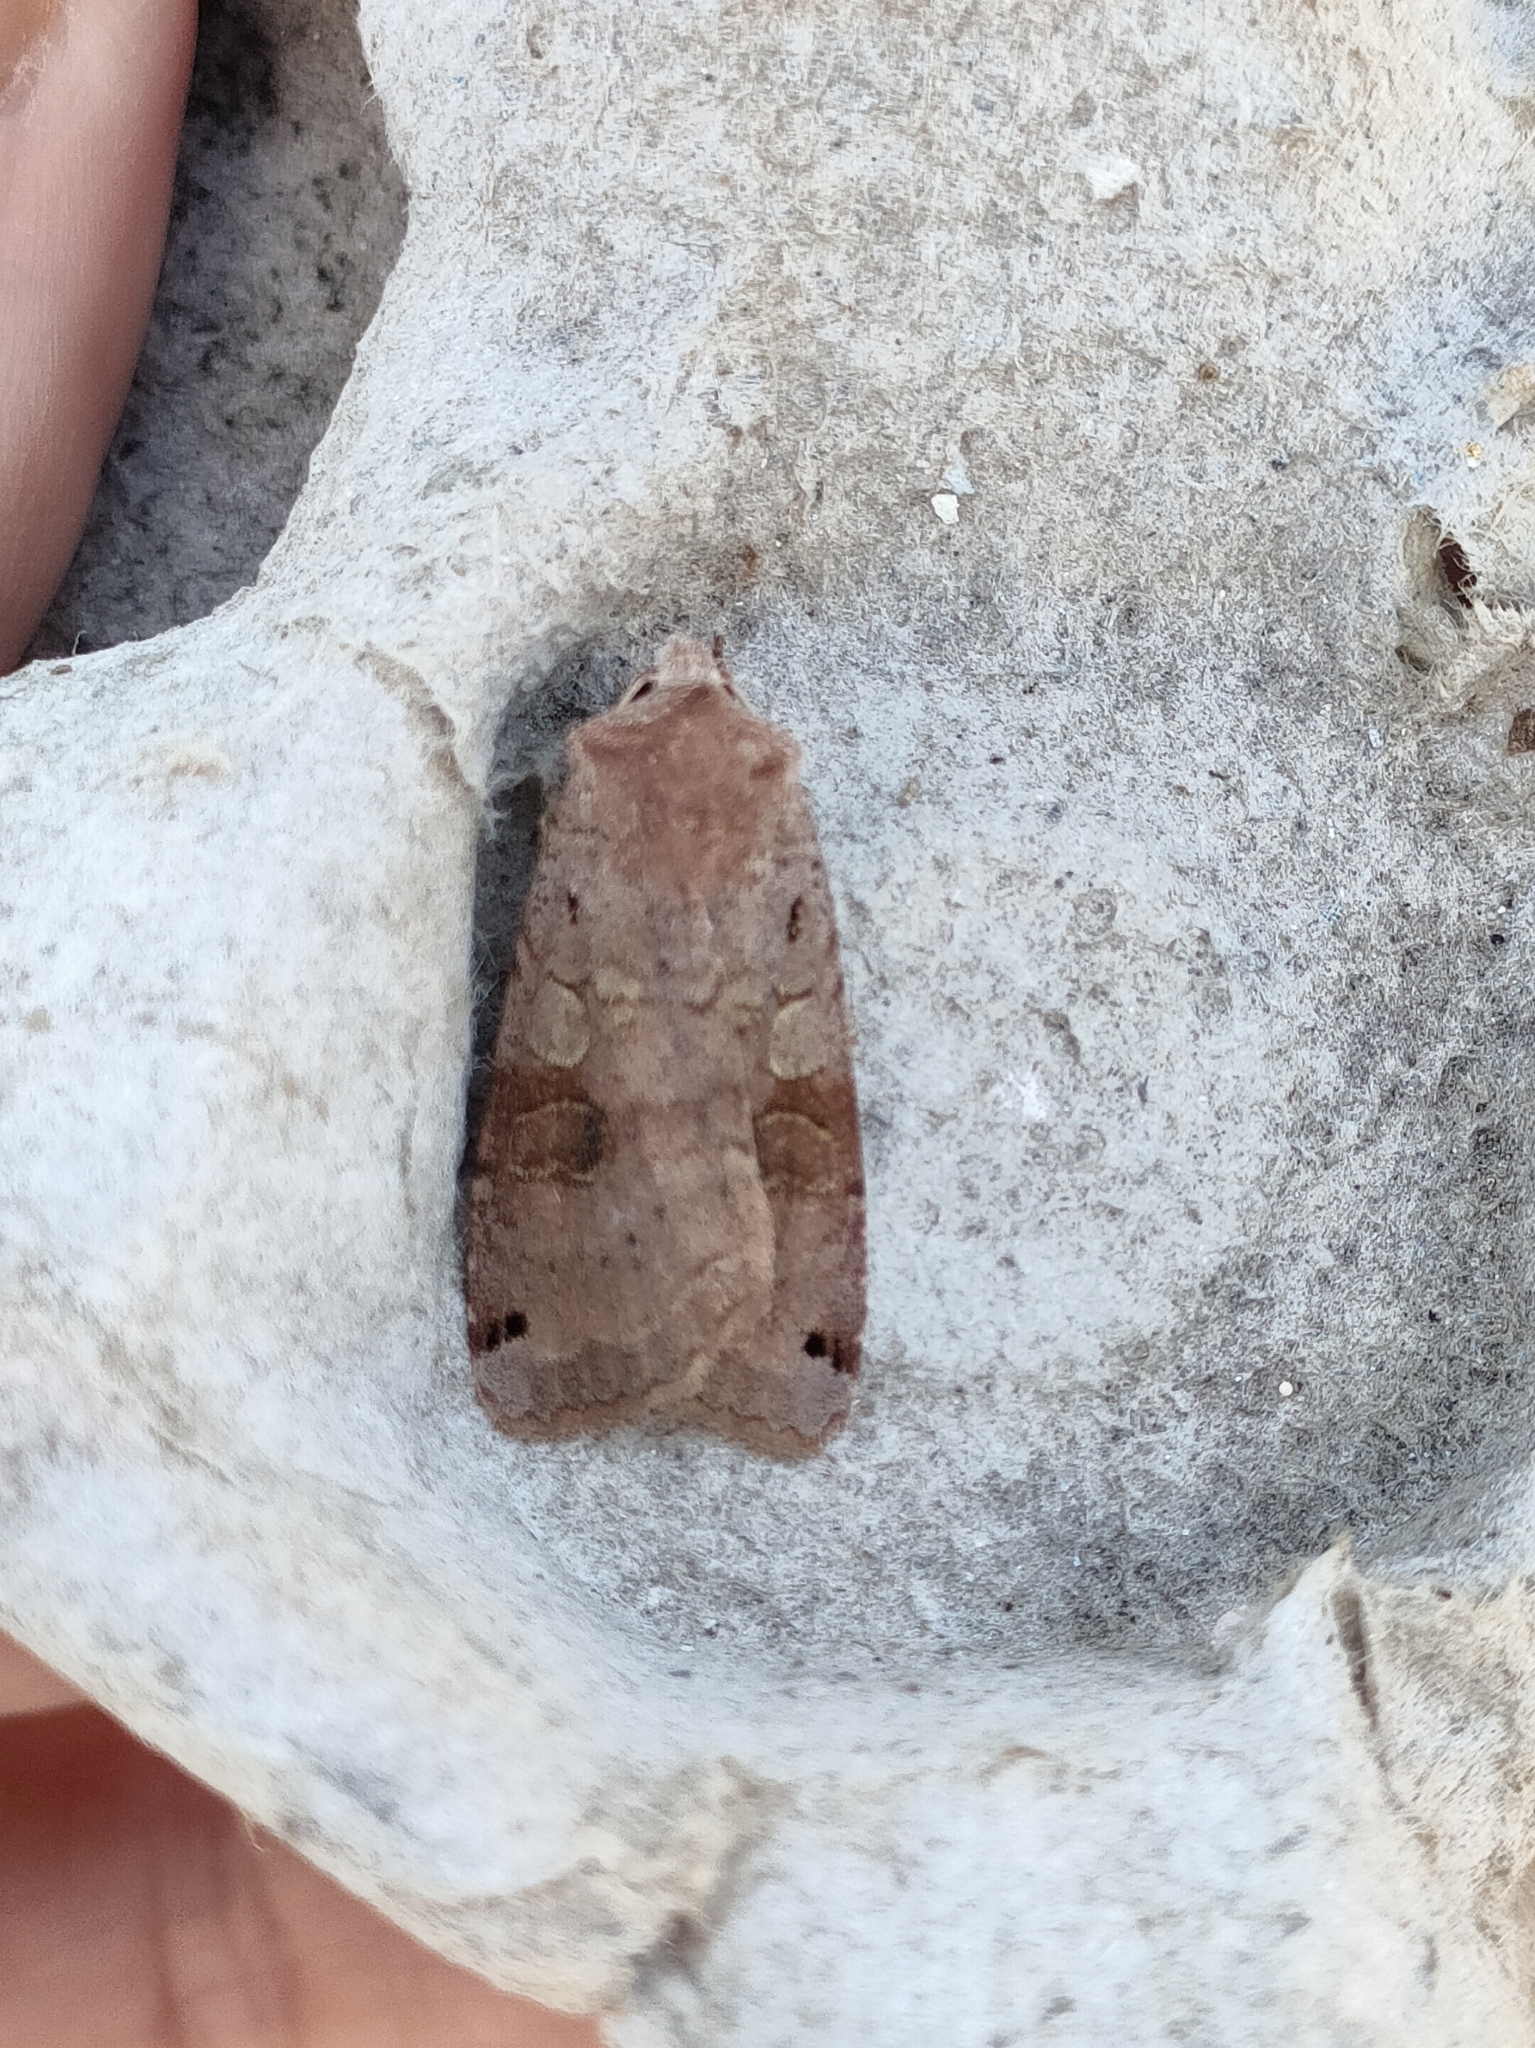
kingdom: Animalia
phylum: Arthropoda
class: Insecta
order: Lepidoptera
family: Noctuidae
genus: Xestia
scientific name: Xestia baja
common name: Dotted clay
